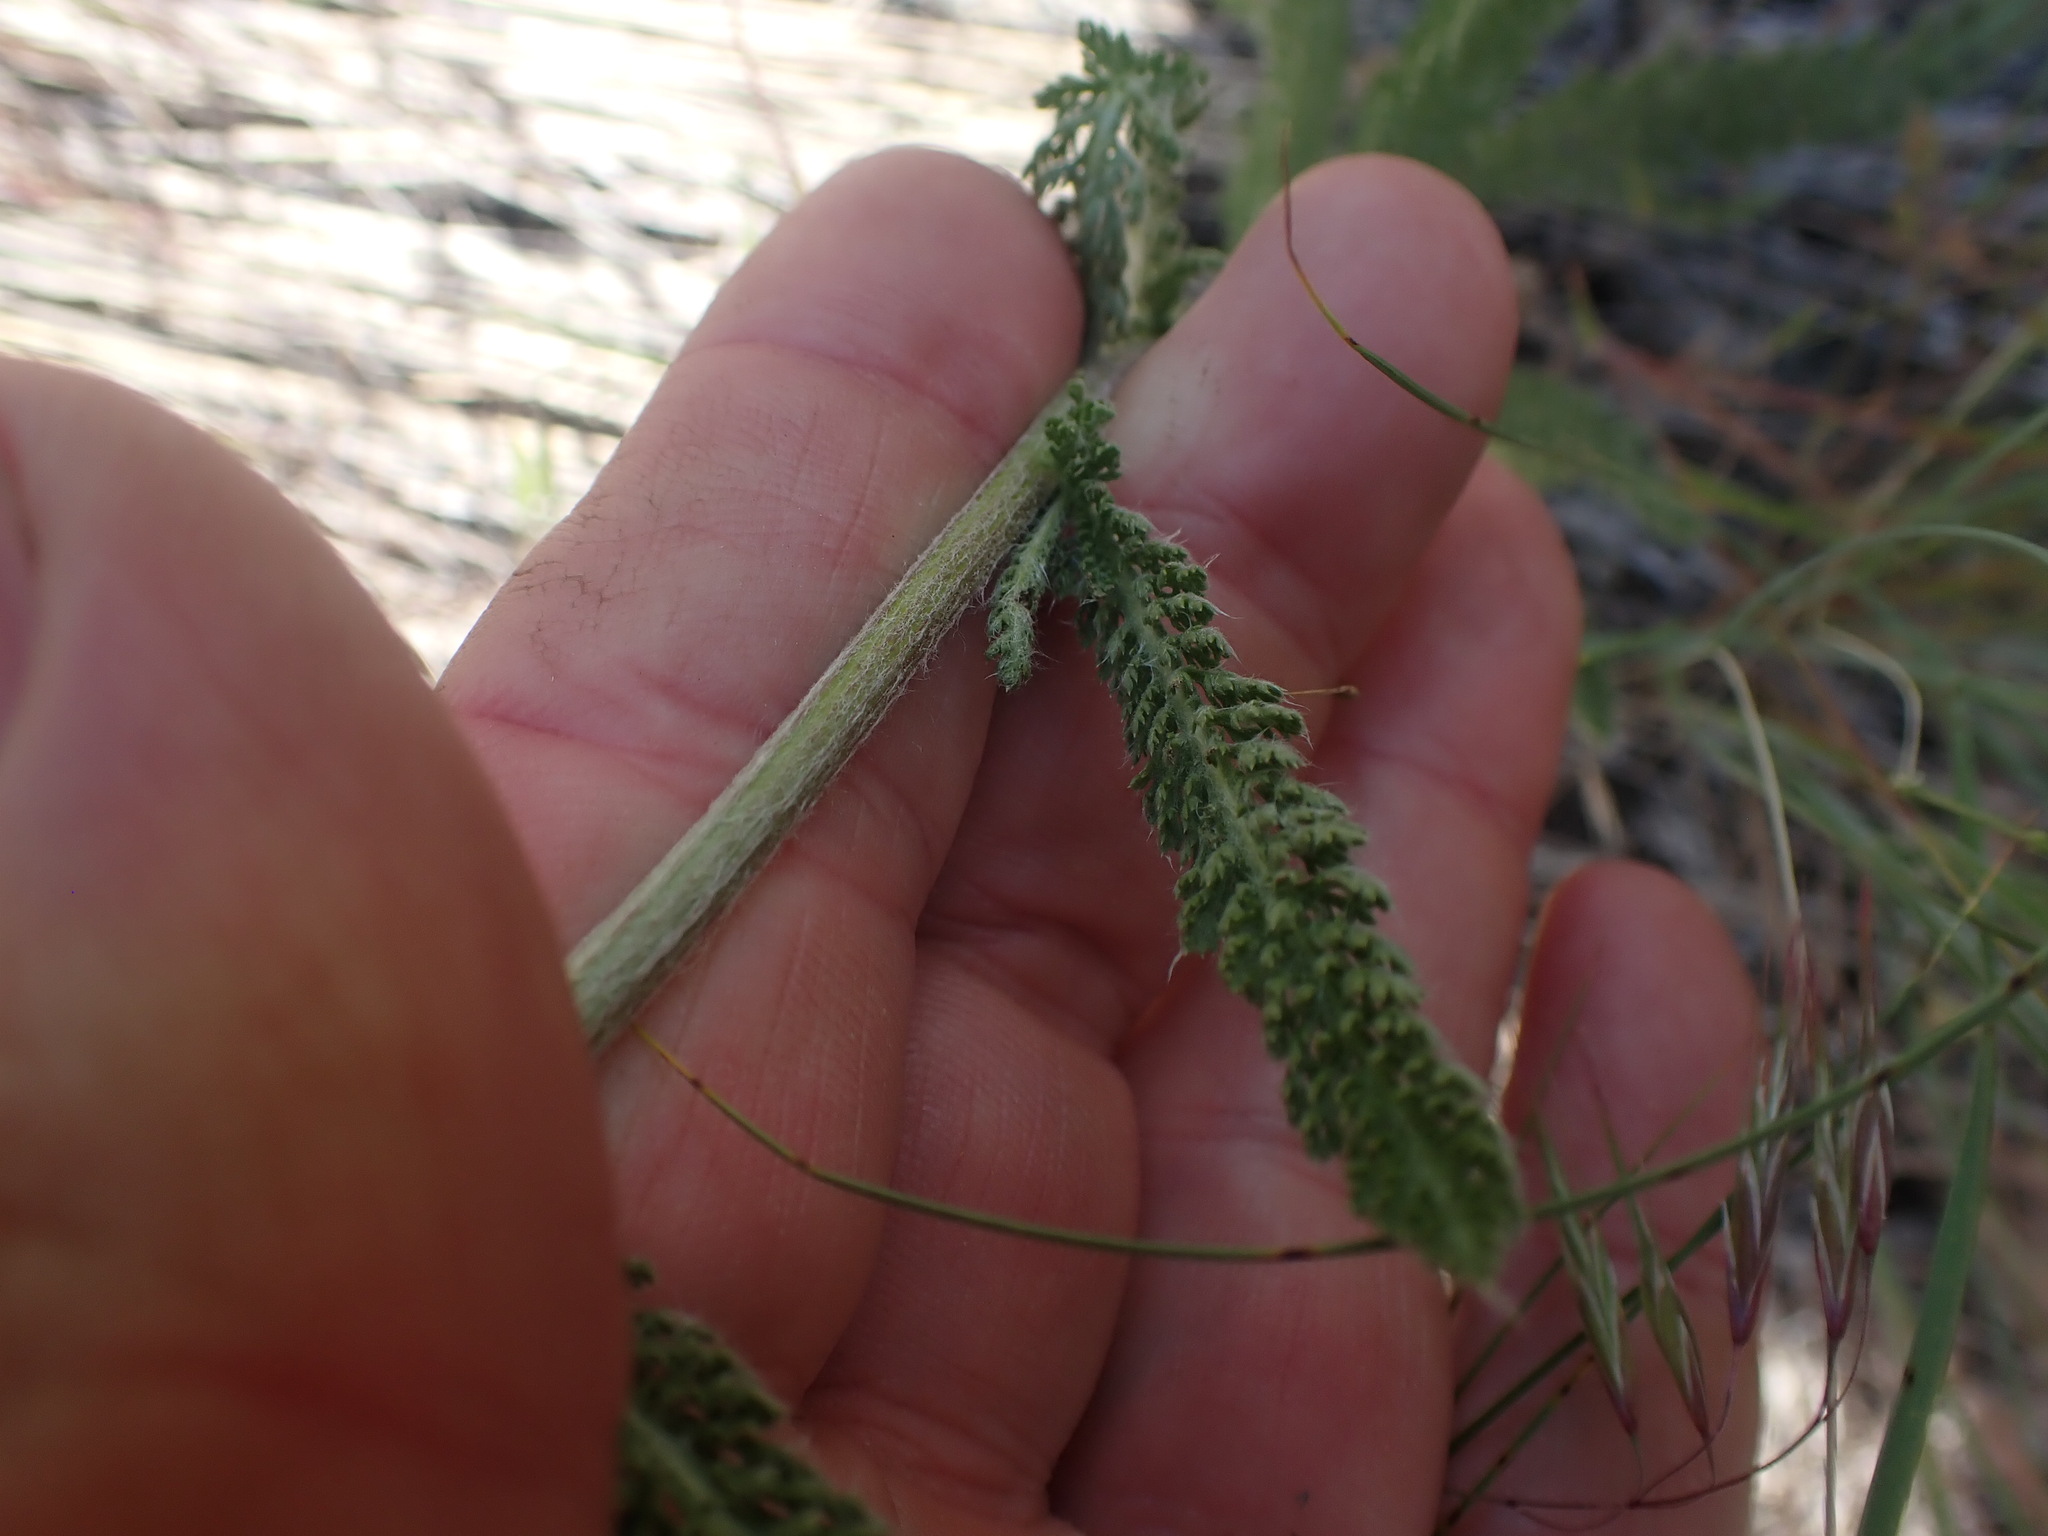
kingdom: Plantae
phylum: Tracheophyta
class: Magnoliopsida
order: Asterales
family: Asteraceae
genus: Achillea
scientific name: Achillea millefolium
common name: Yarrow
